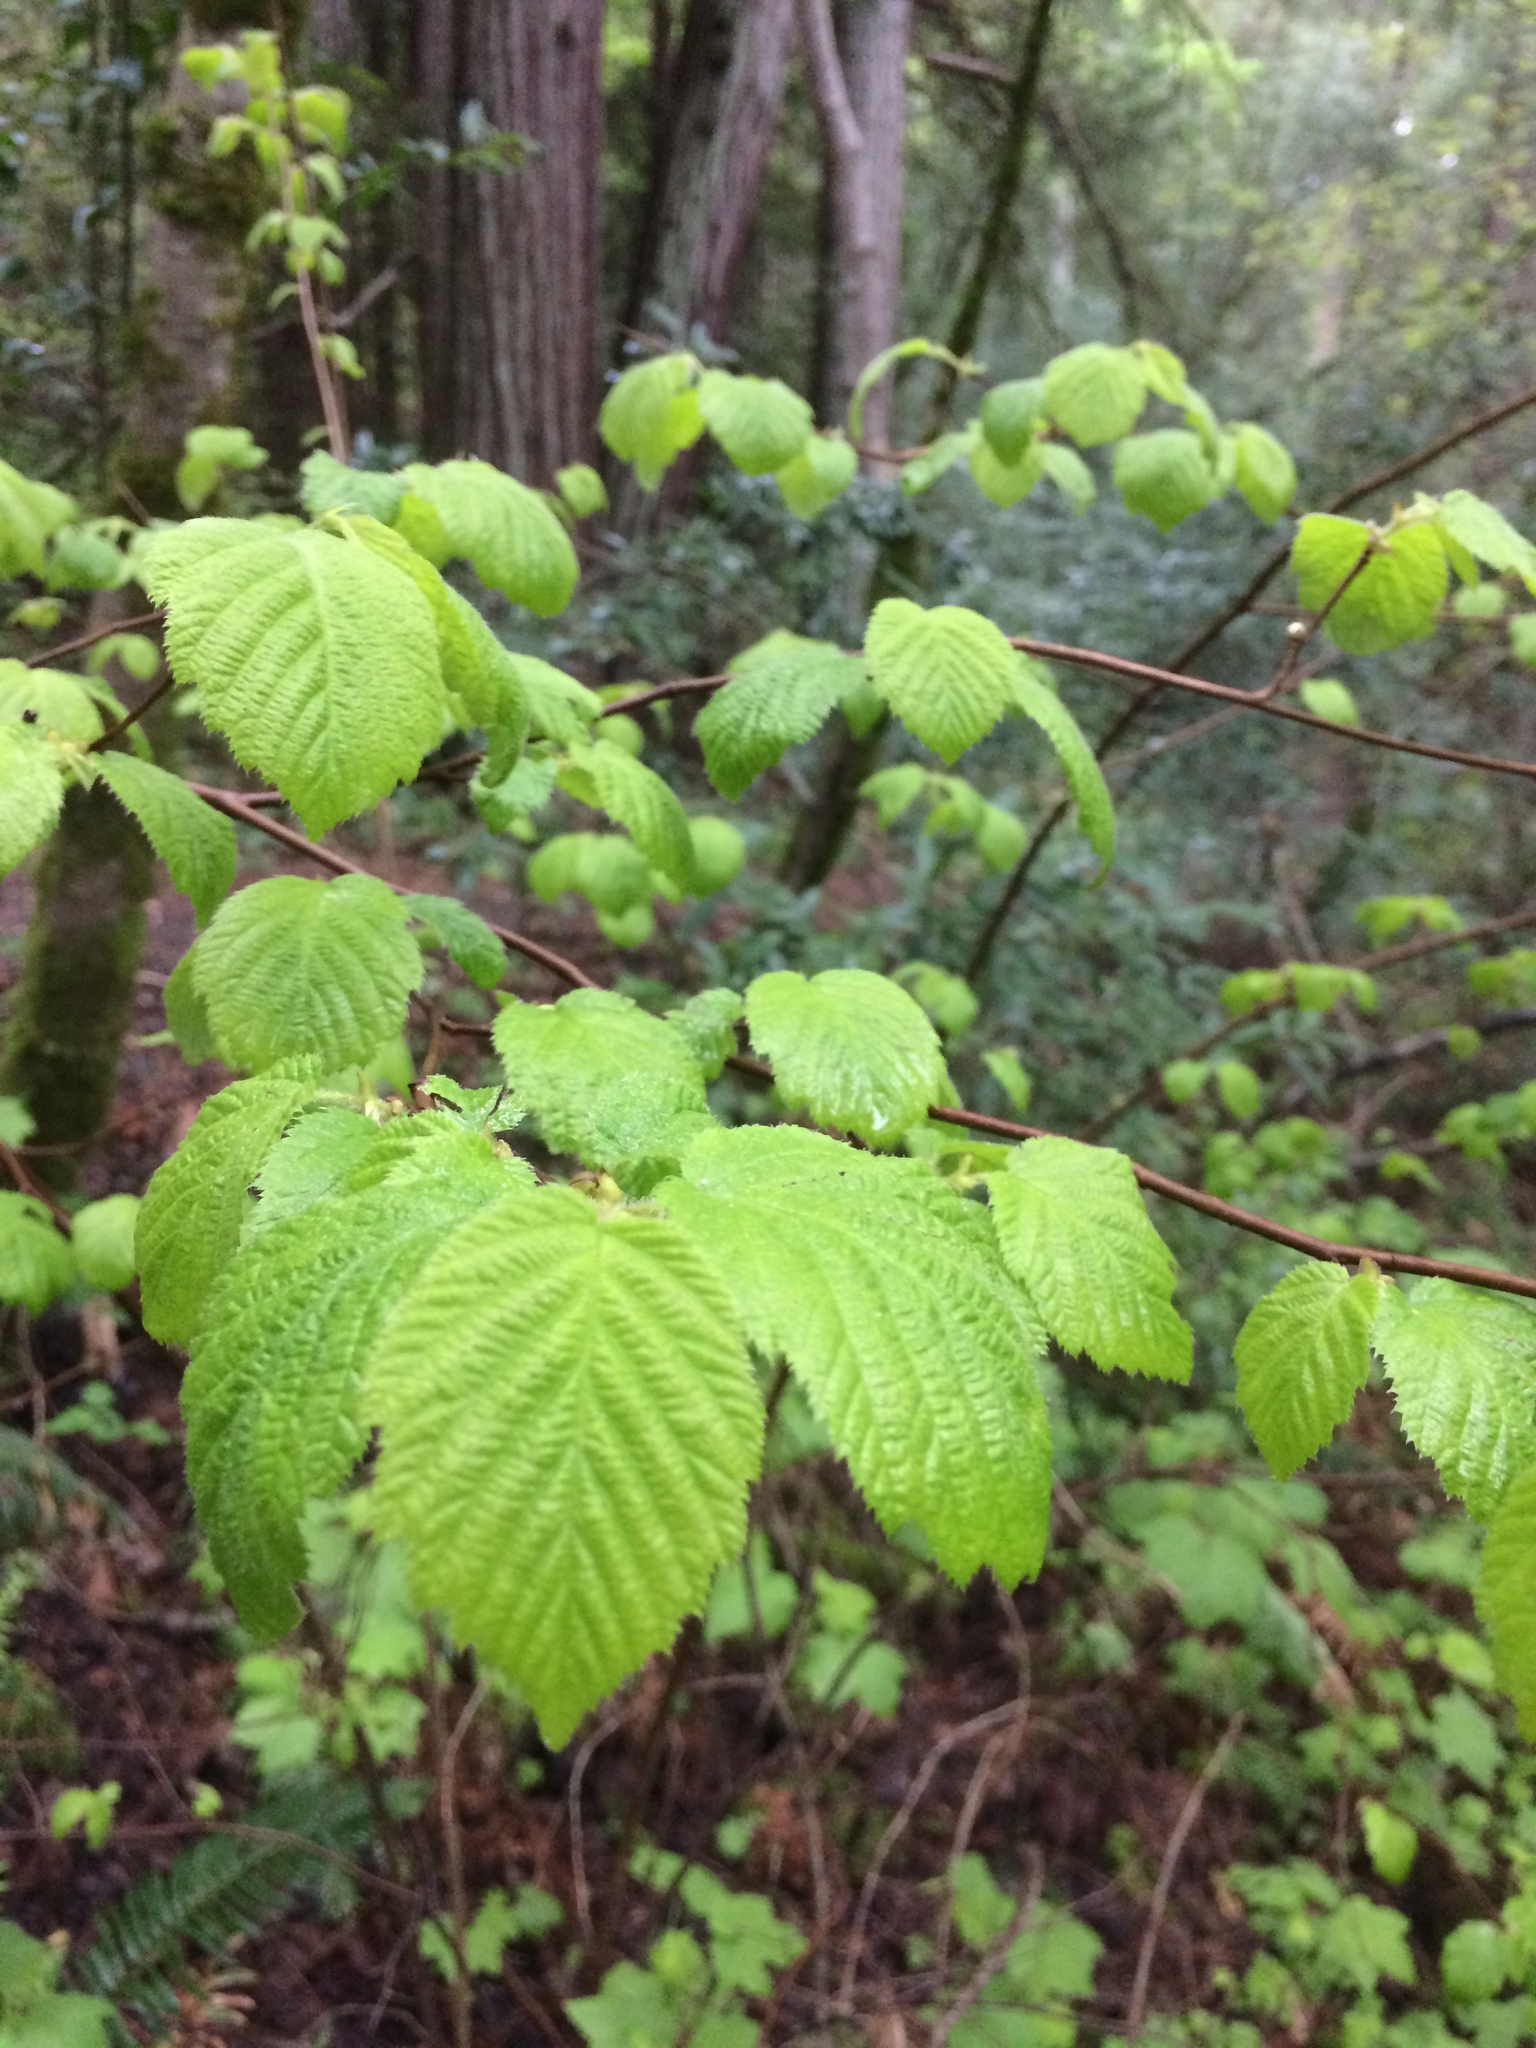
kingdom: Plantae
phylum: Tracheophyta
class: Magnoliopsida
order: Fagales
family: Betulaceae
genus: Corylus
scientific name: Corylus cornuta
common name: Beaked hazel
